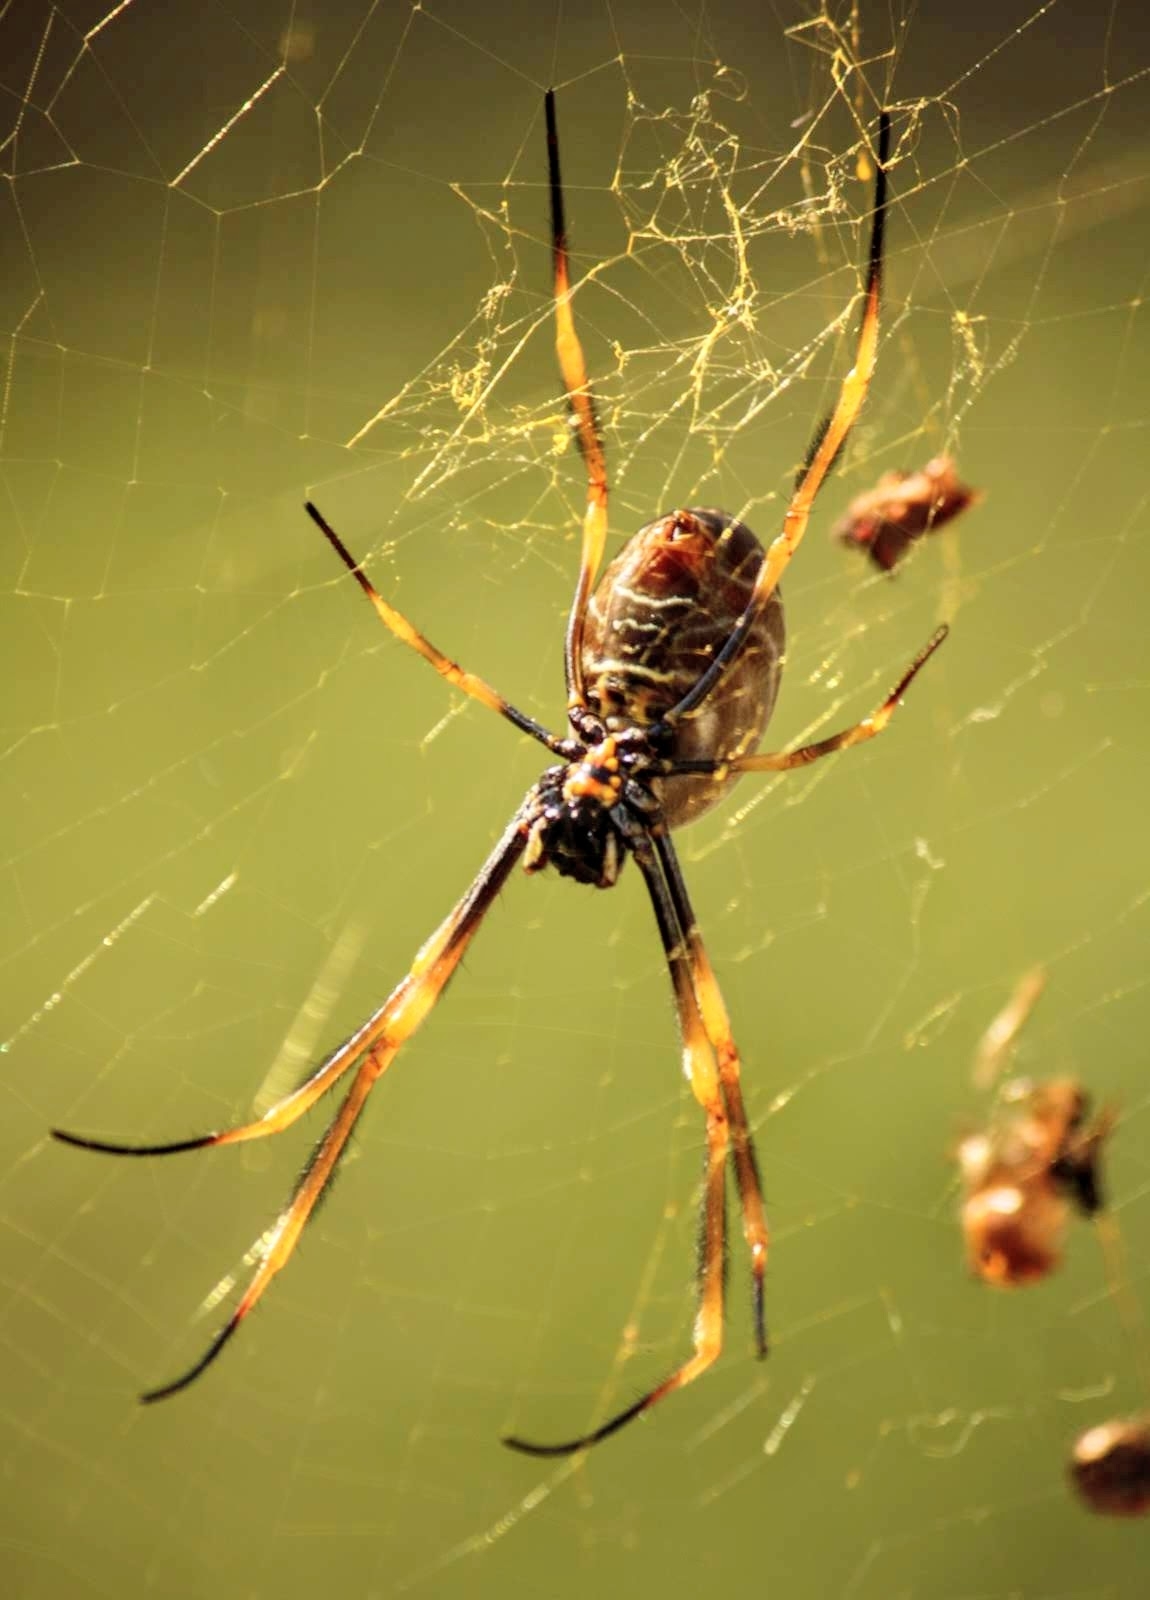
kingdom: Animalia
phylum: Arthropoda
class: Arachnida
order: Araneae
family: Araneidae
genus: Trichonephila
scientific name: Trichonephila plumipes
